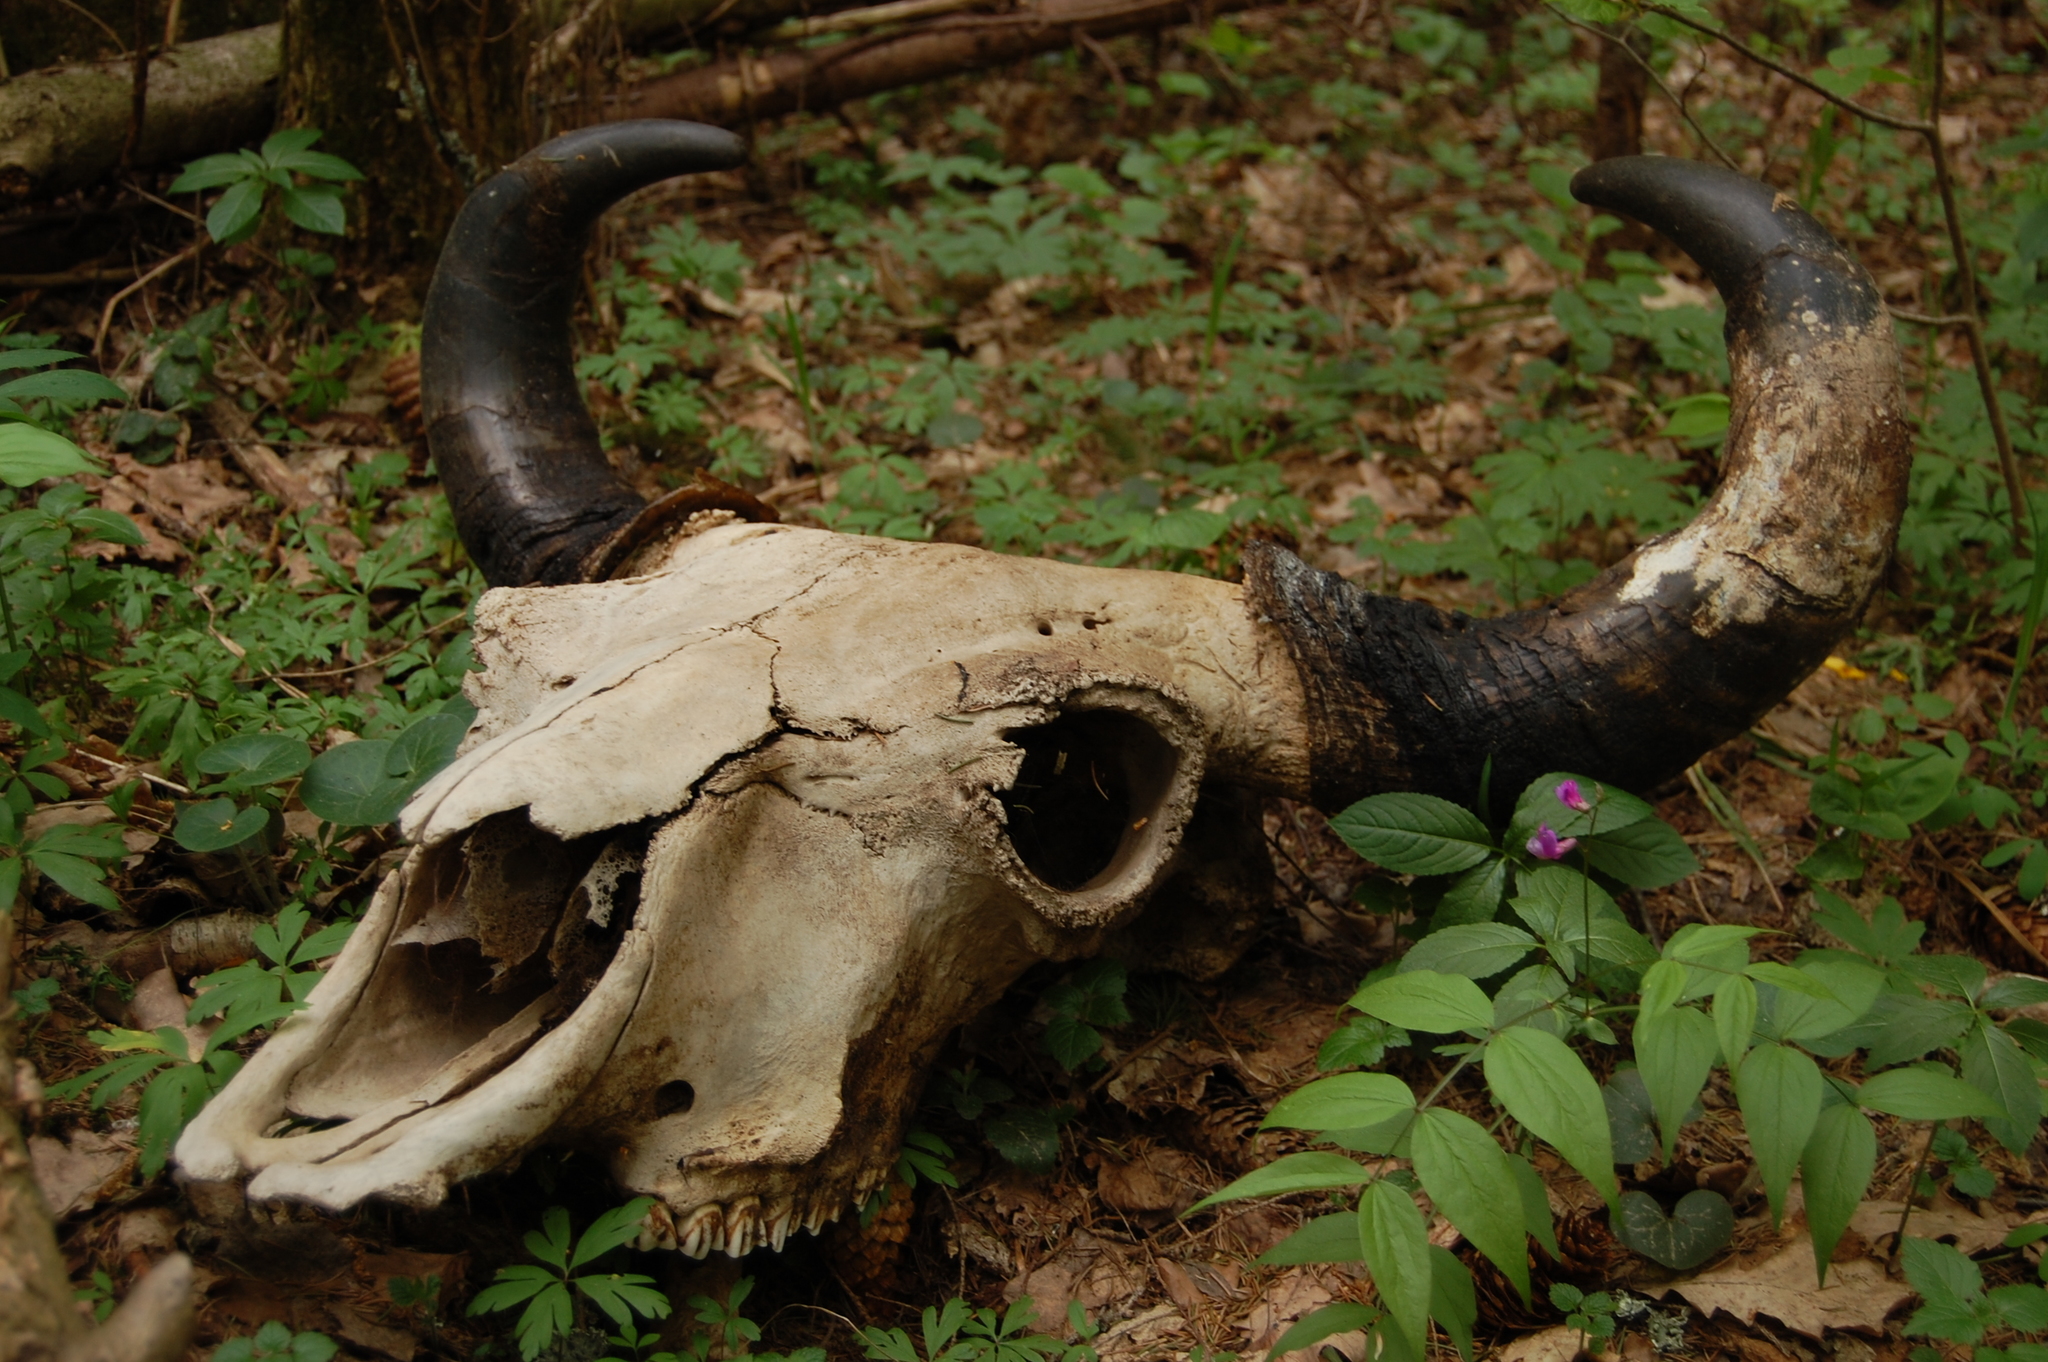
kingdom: Animalia
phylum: Chordata
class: Mammalia
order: Artiodactyla
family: Bovidae
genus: Bison
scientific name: Bison bonasus
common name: European bison
